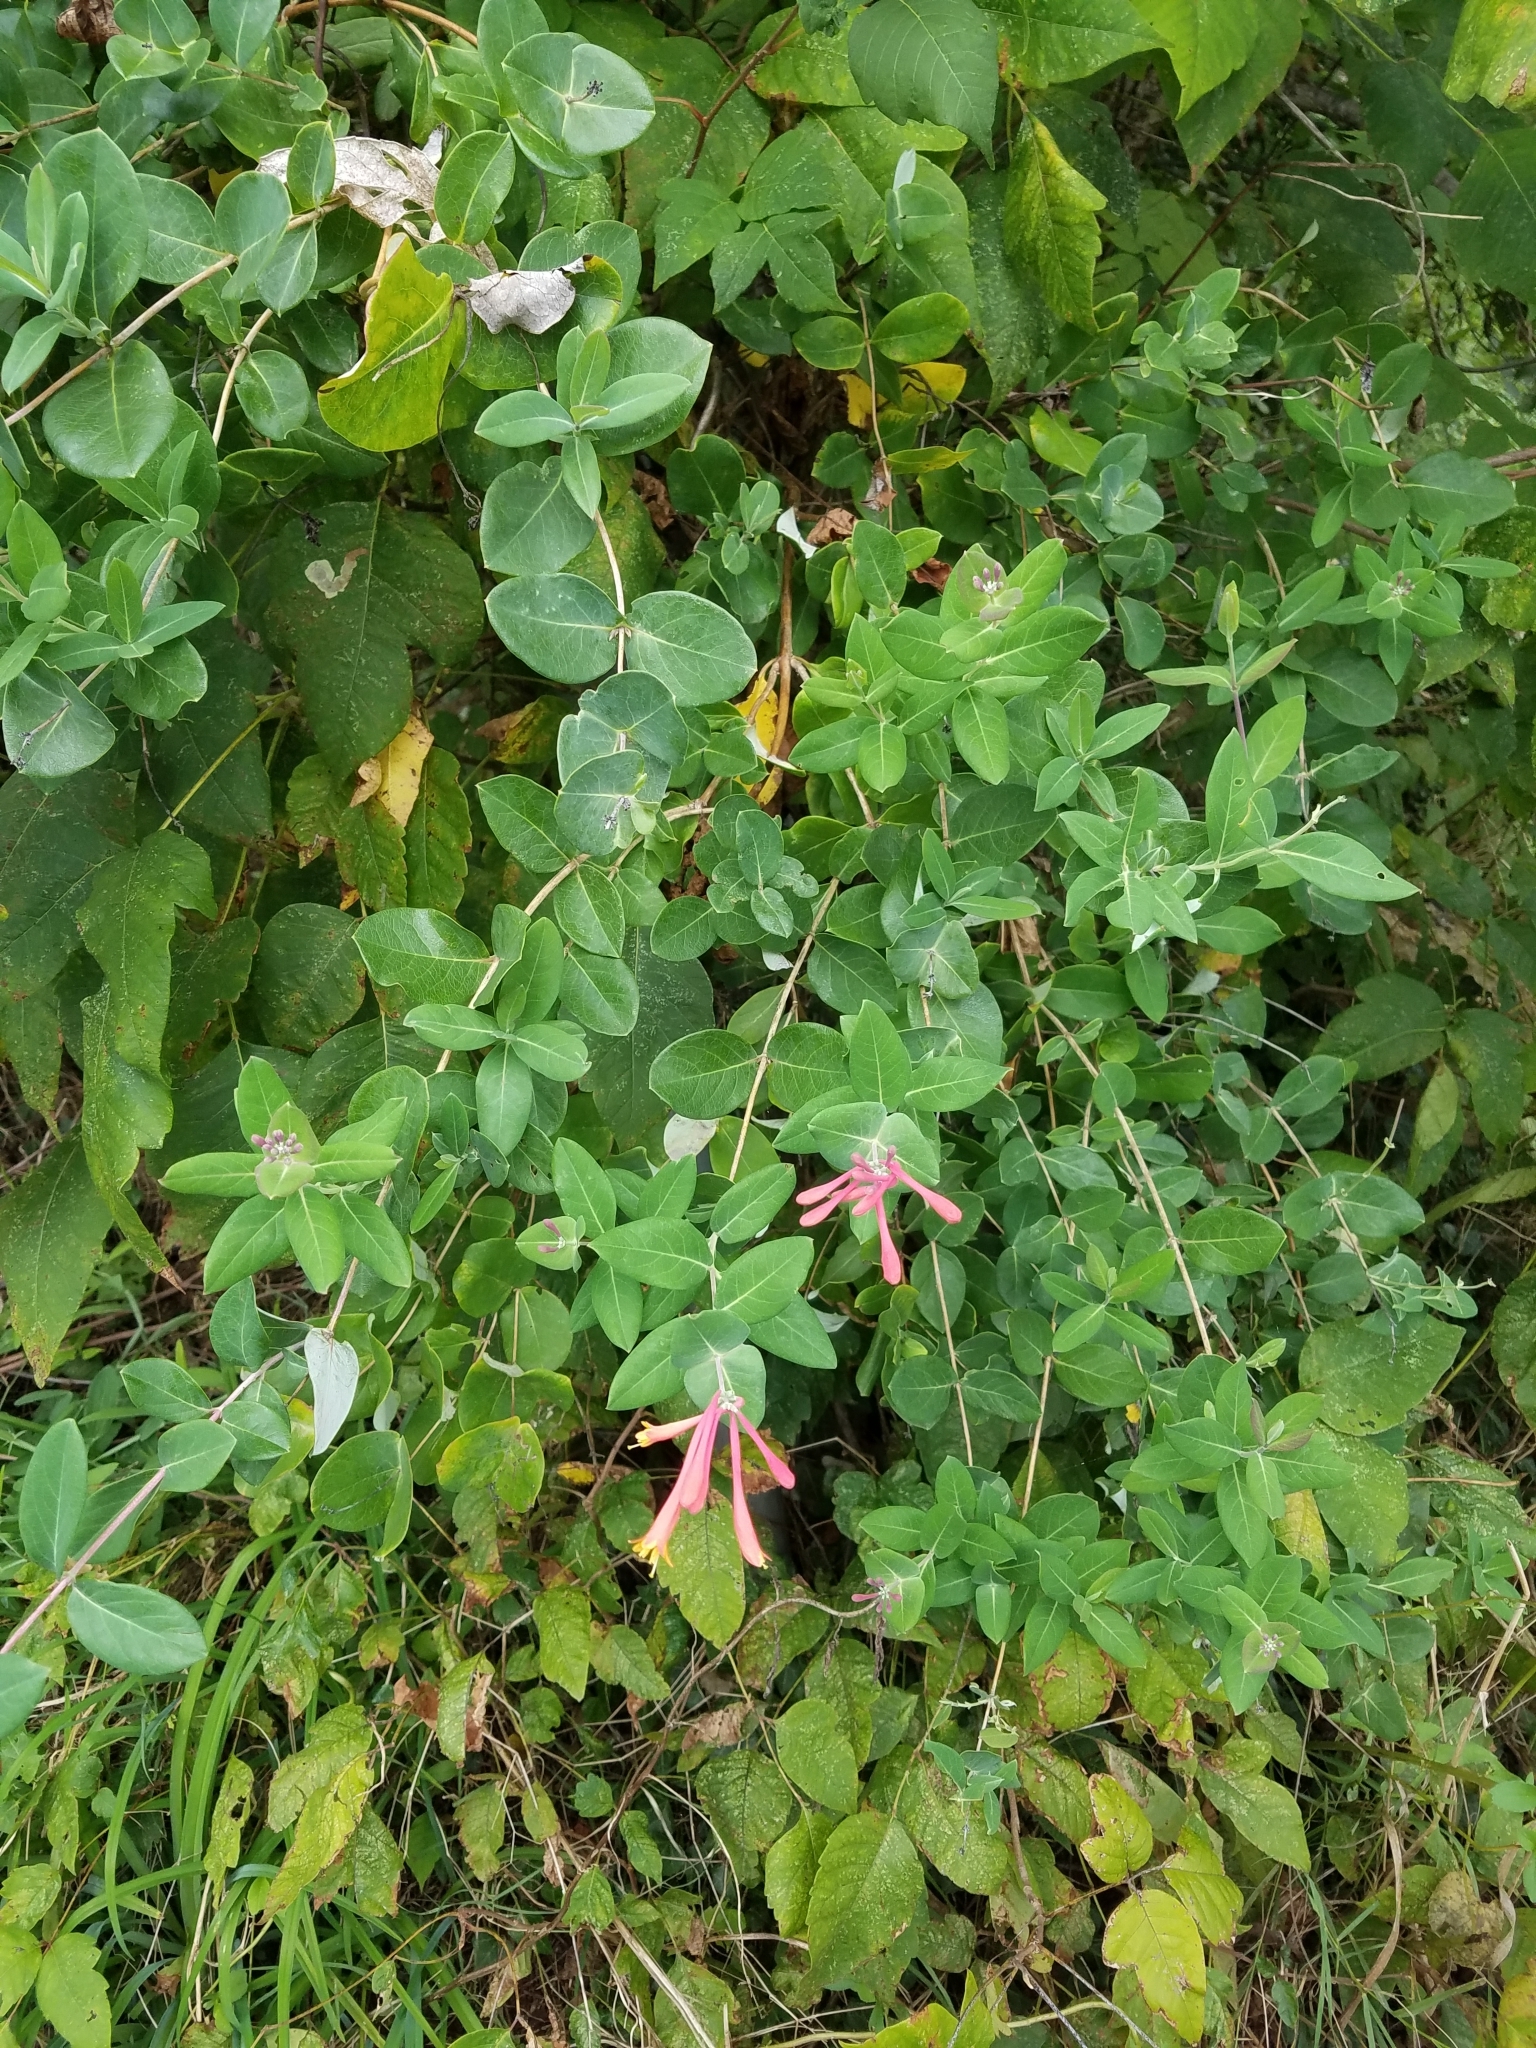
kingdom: Plantae
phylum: Tracheophyta
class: Magnoliopsida
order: Dipsacales
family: Caprifoliaceae
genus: Lonicera
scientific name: Lonicera sempervirens
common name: Coral honeysuckle
